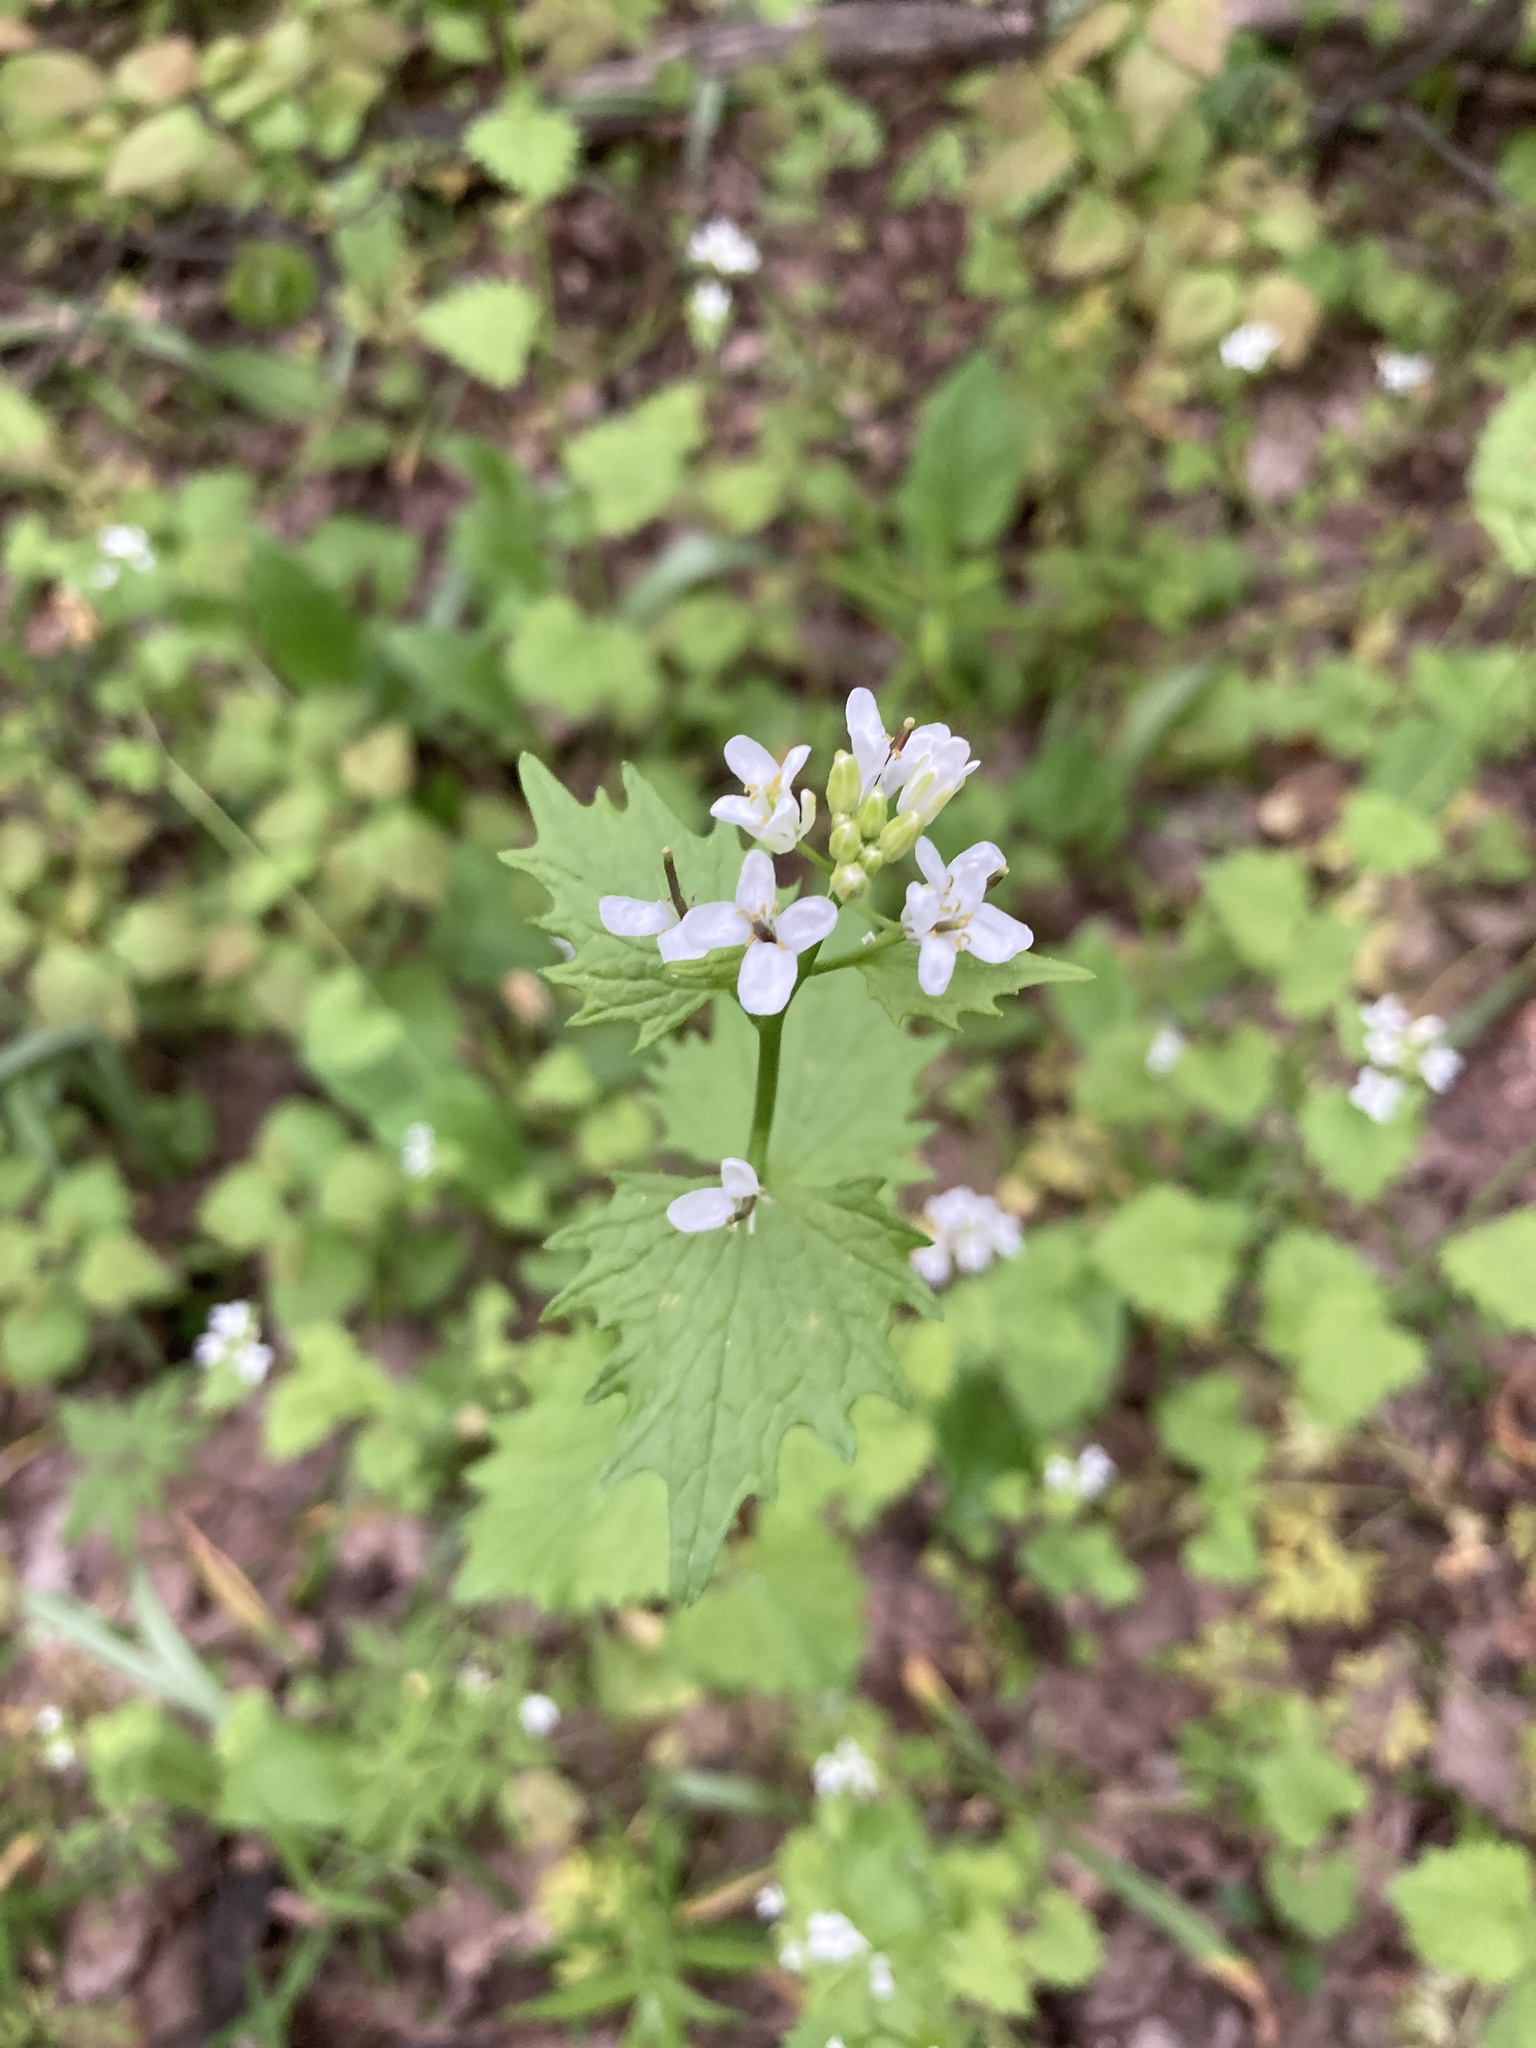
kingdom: Plantae
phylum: Tracheophyta
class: Magnoliopsida
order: Brassicales
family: Brassicaceae
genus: Alliaria
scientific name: Alliaria petiolata
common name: Garlic mustard
